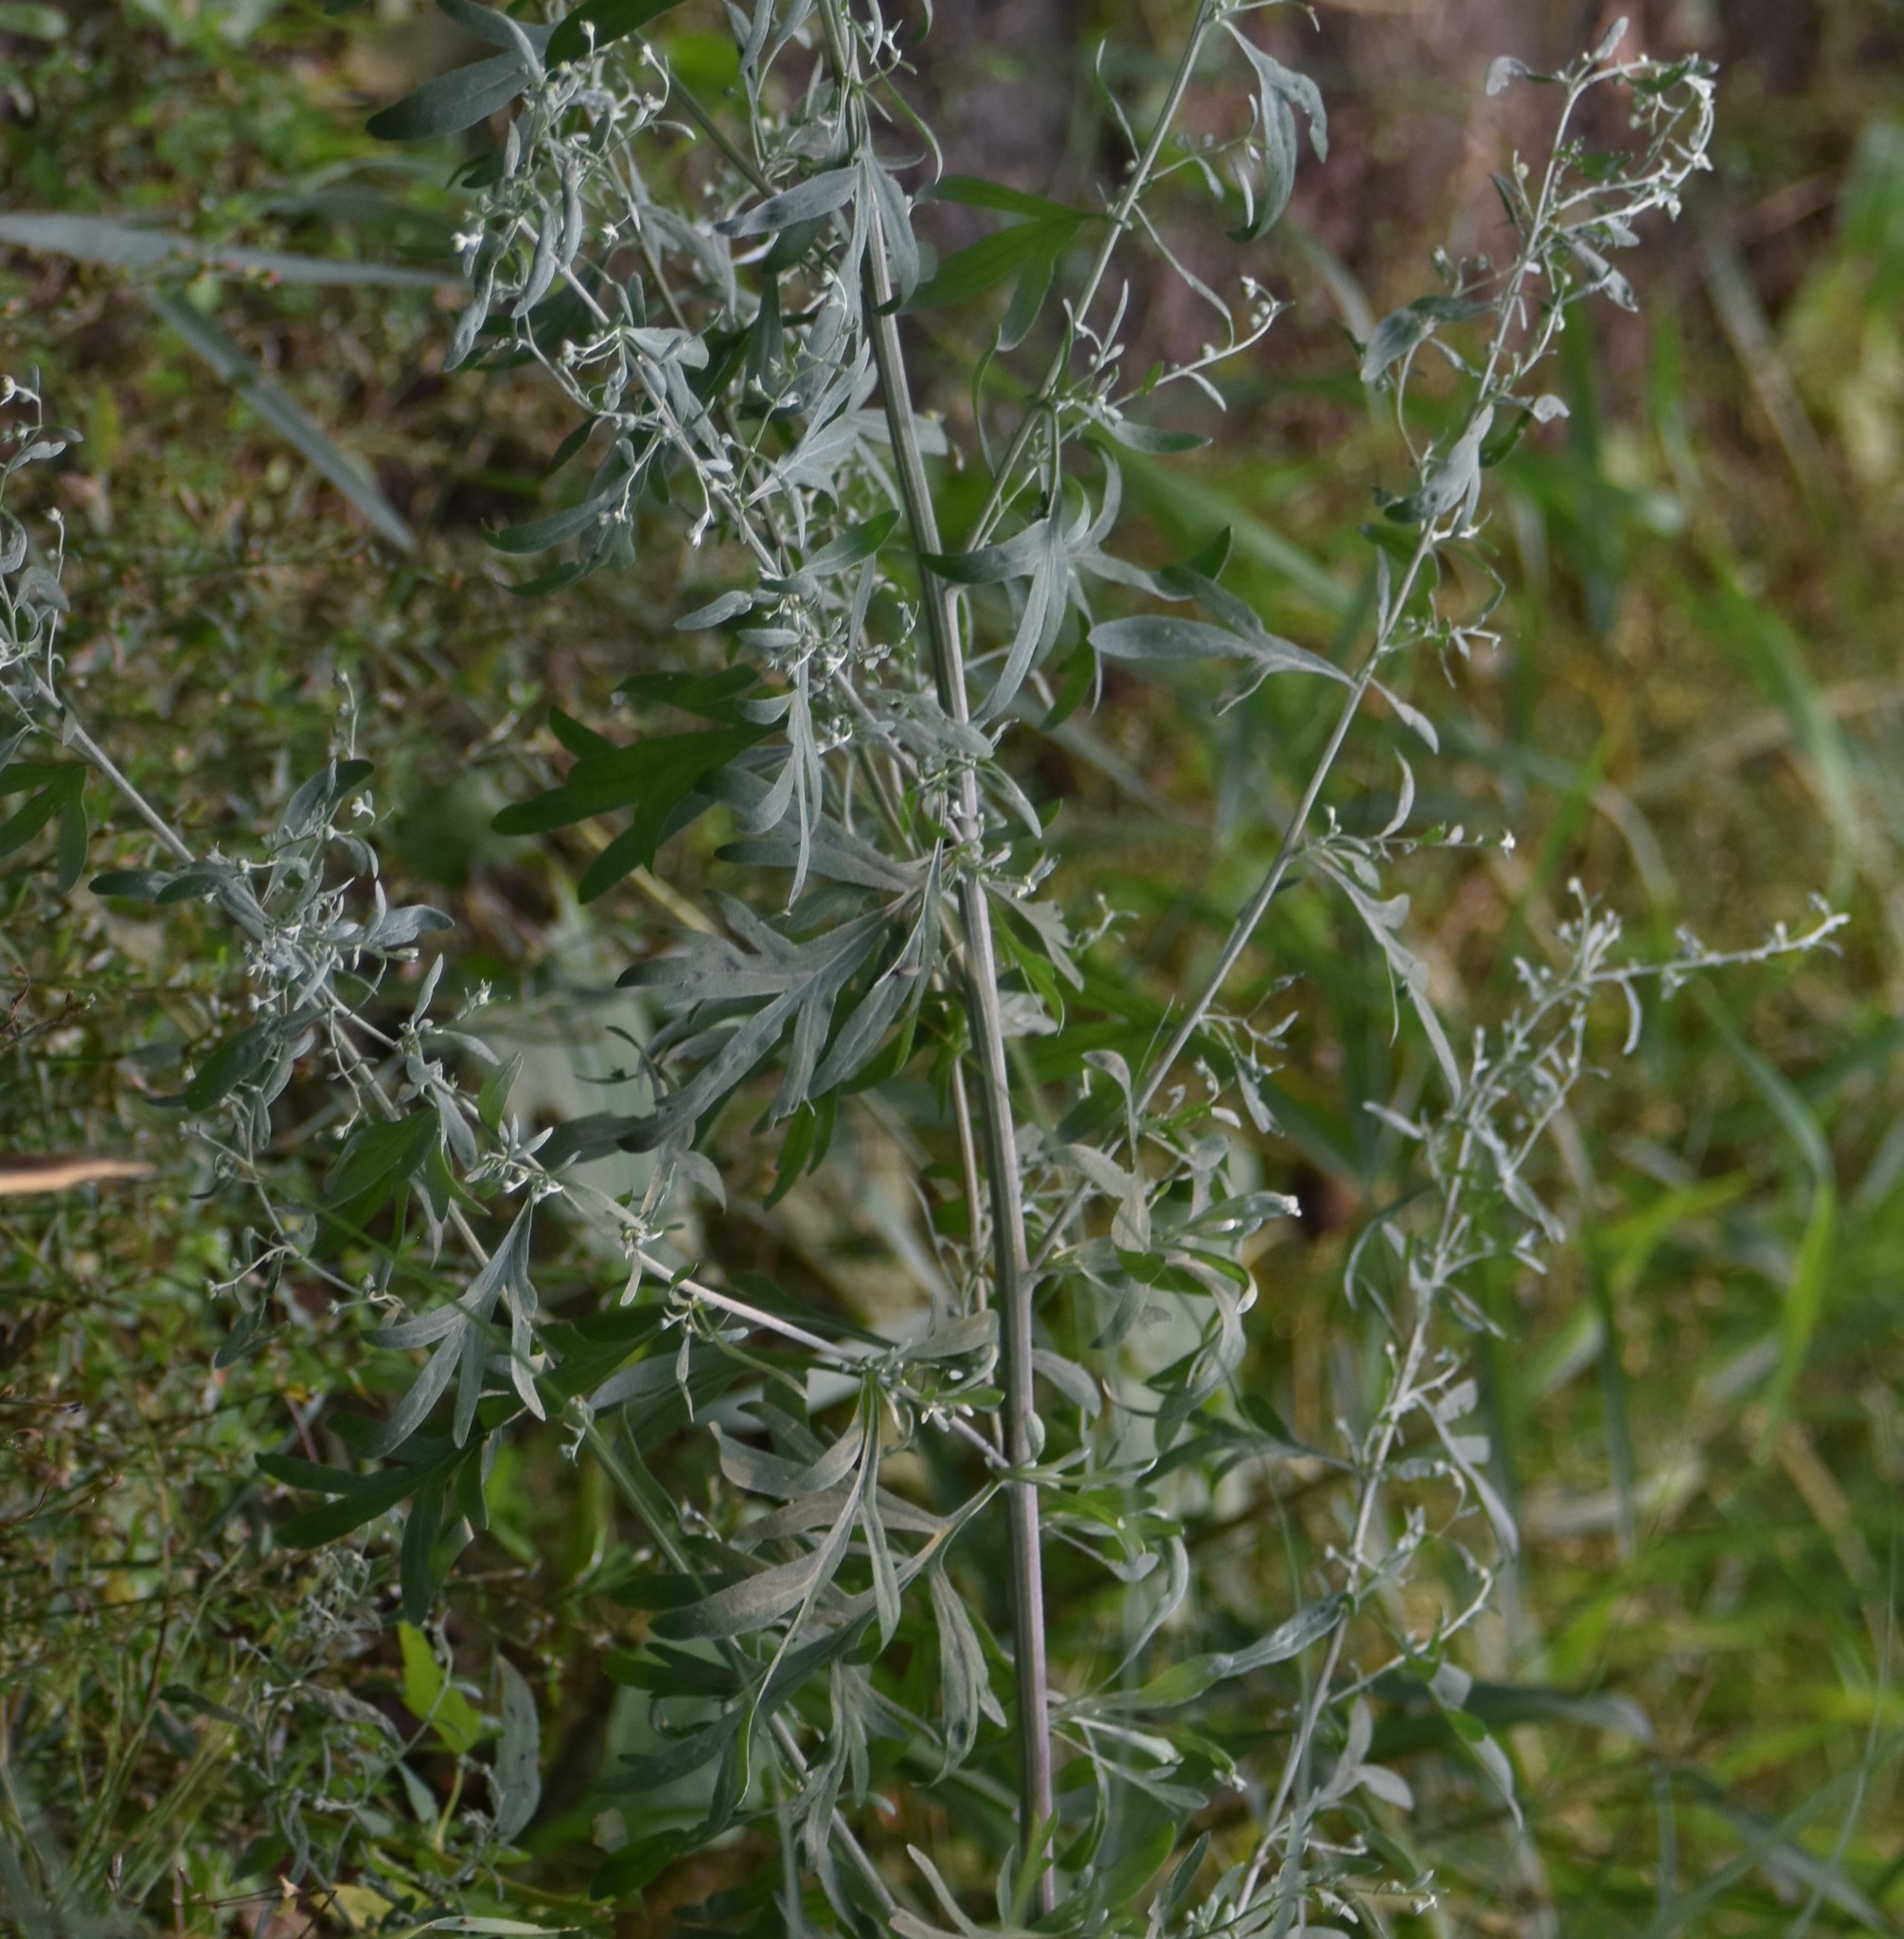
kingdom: Plantae
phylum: Tracheophyta
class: Magnoliopsida
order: Asterales
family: Asteraceae
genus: Artemisia
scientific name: Artemisia absinthium
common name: Wormwood
